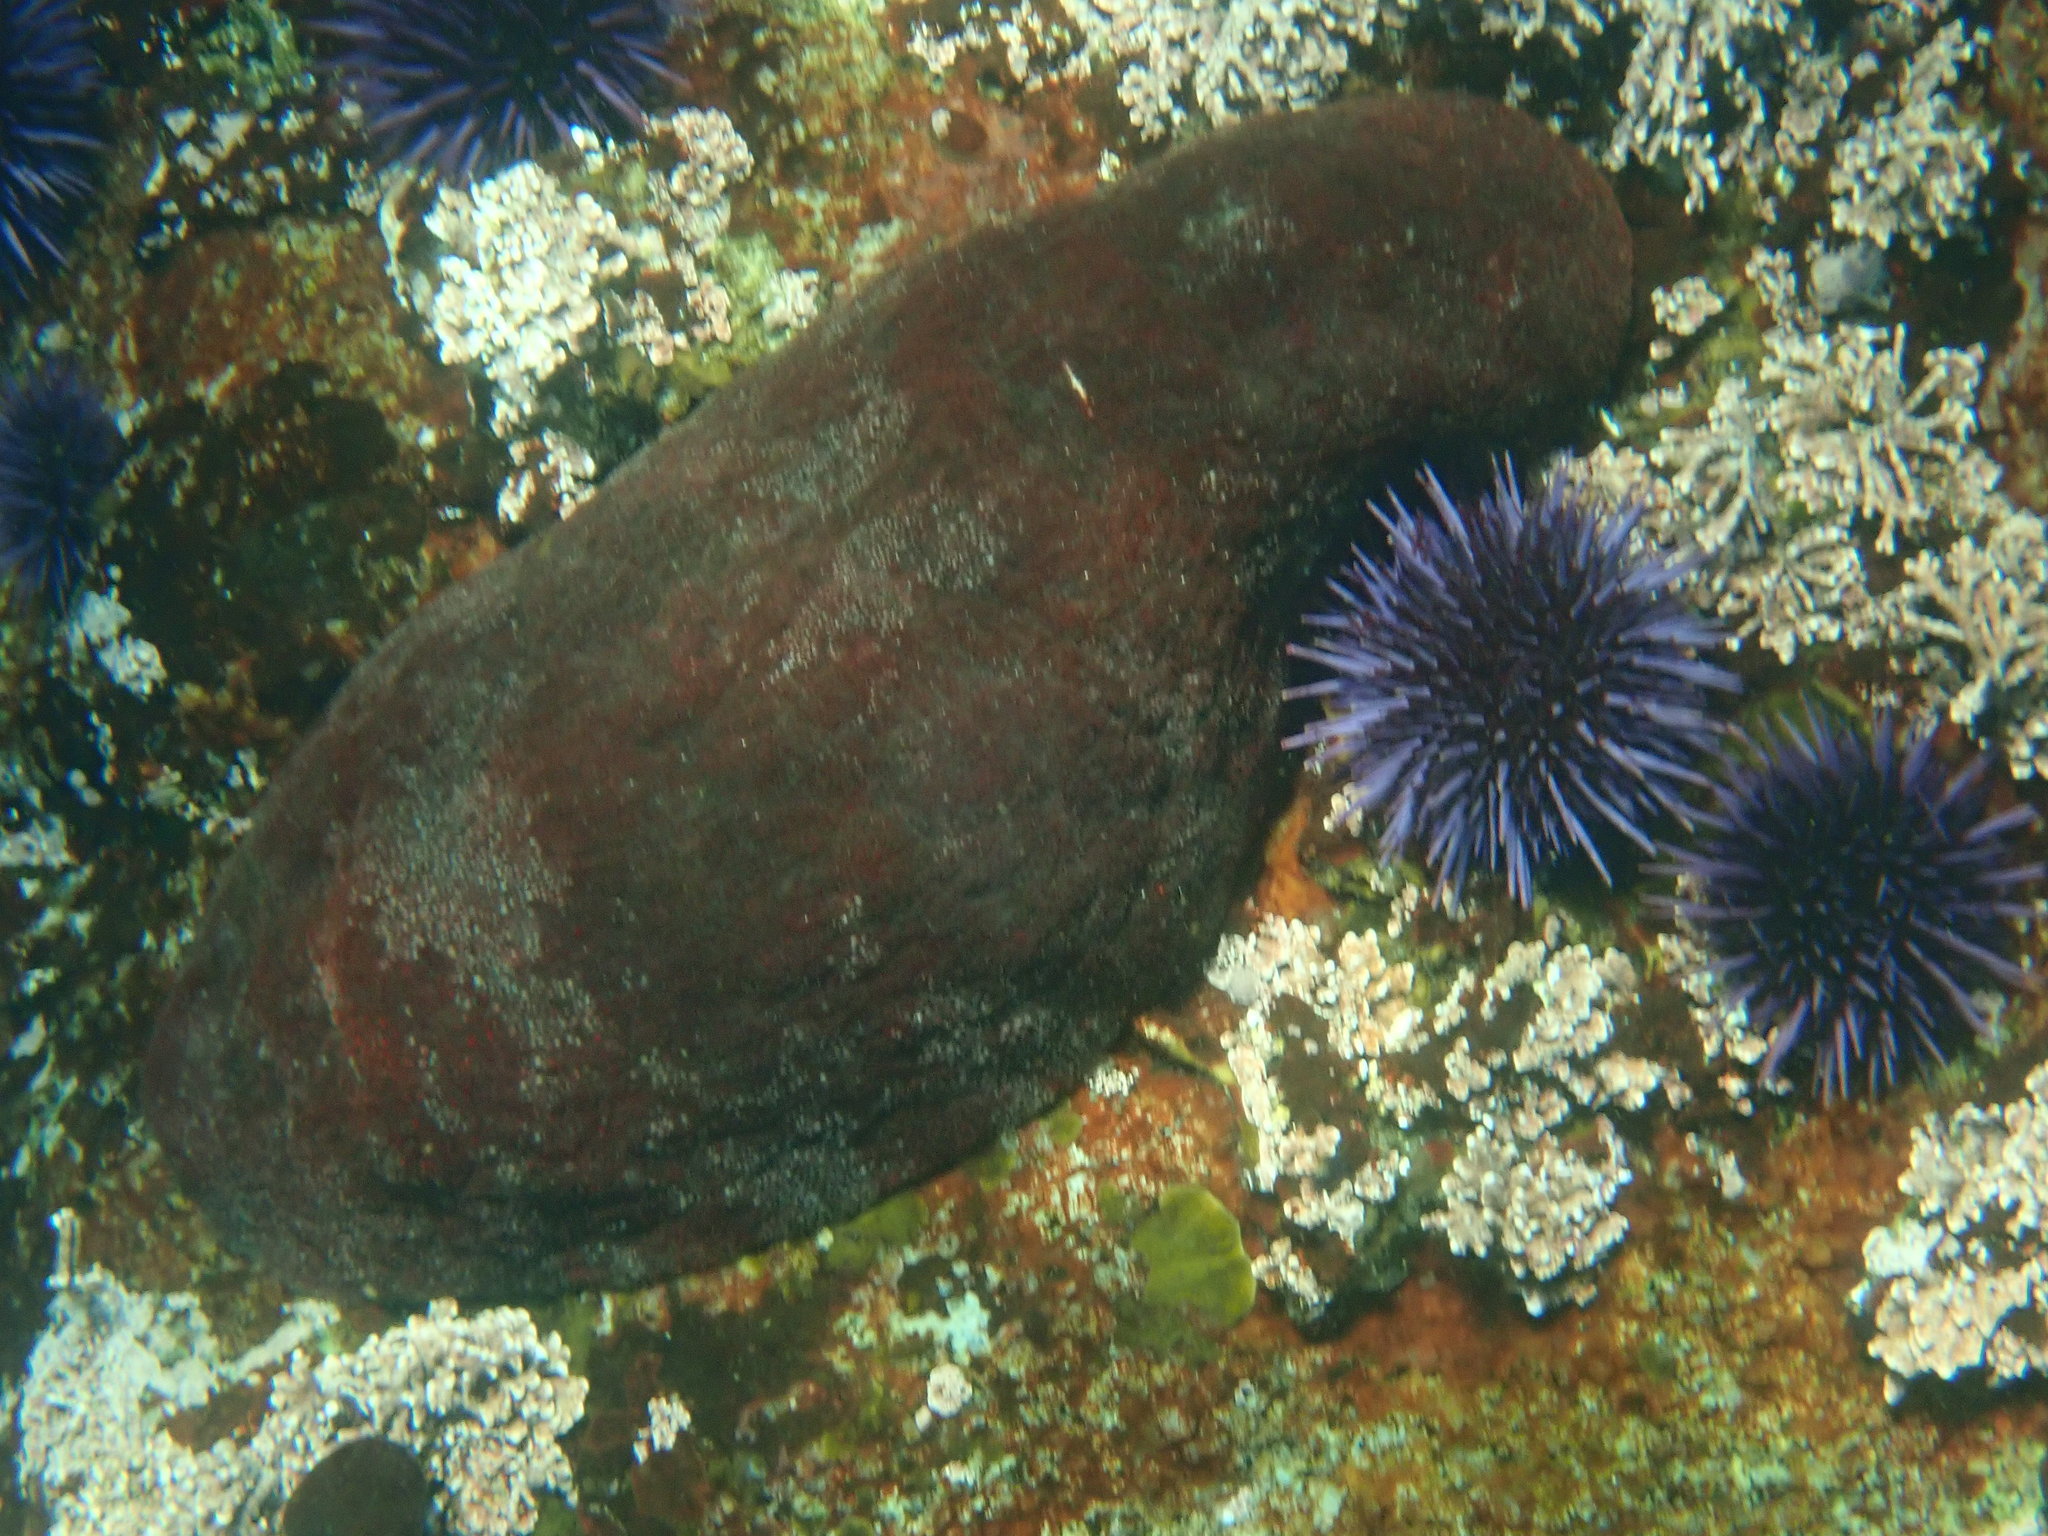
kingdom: Animalia
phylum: Mollusca
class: Polyplacophora
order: Chitonida
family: Acanthochitonidae
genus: Cryptochiton
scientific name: Cryptochiton stelleri
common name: Giant pacific chiton
